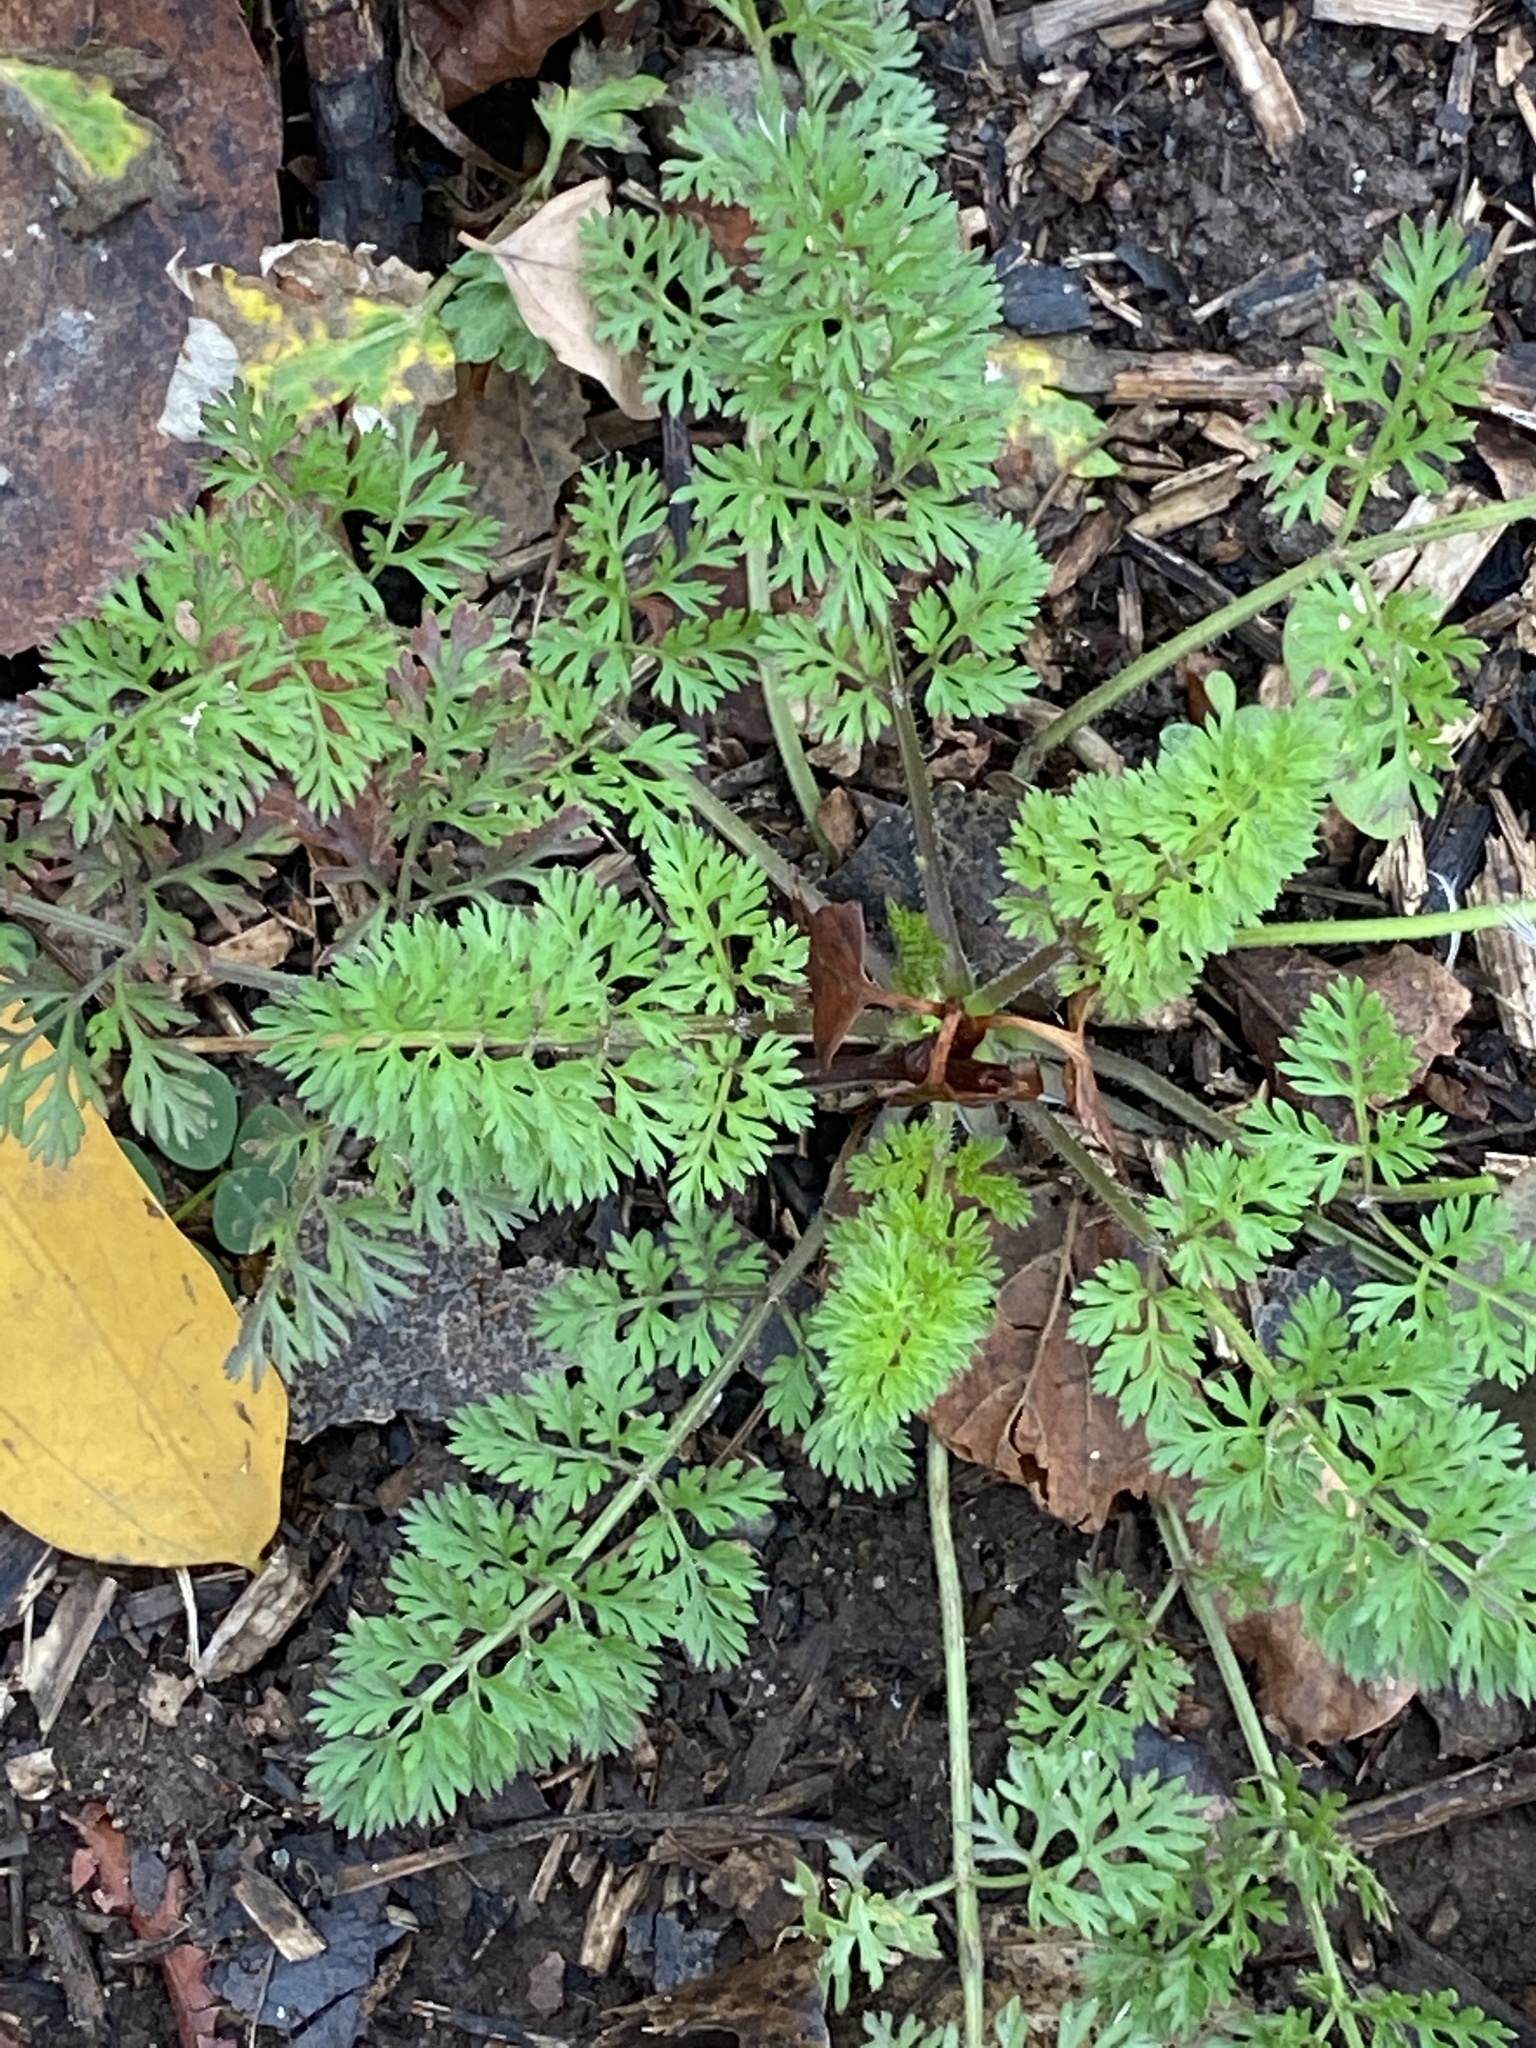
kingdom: Plantae
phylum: Tracheophyta
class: Magnoliopsida
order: Apiales
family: Apiaceae
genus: Daucus
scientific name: Daucus carota
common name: Wild carrot
